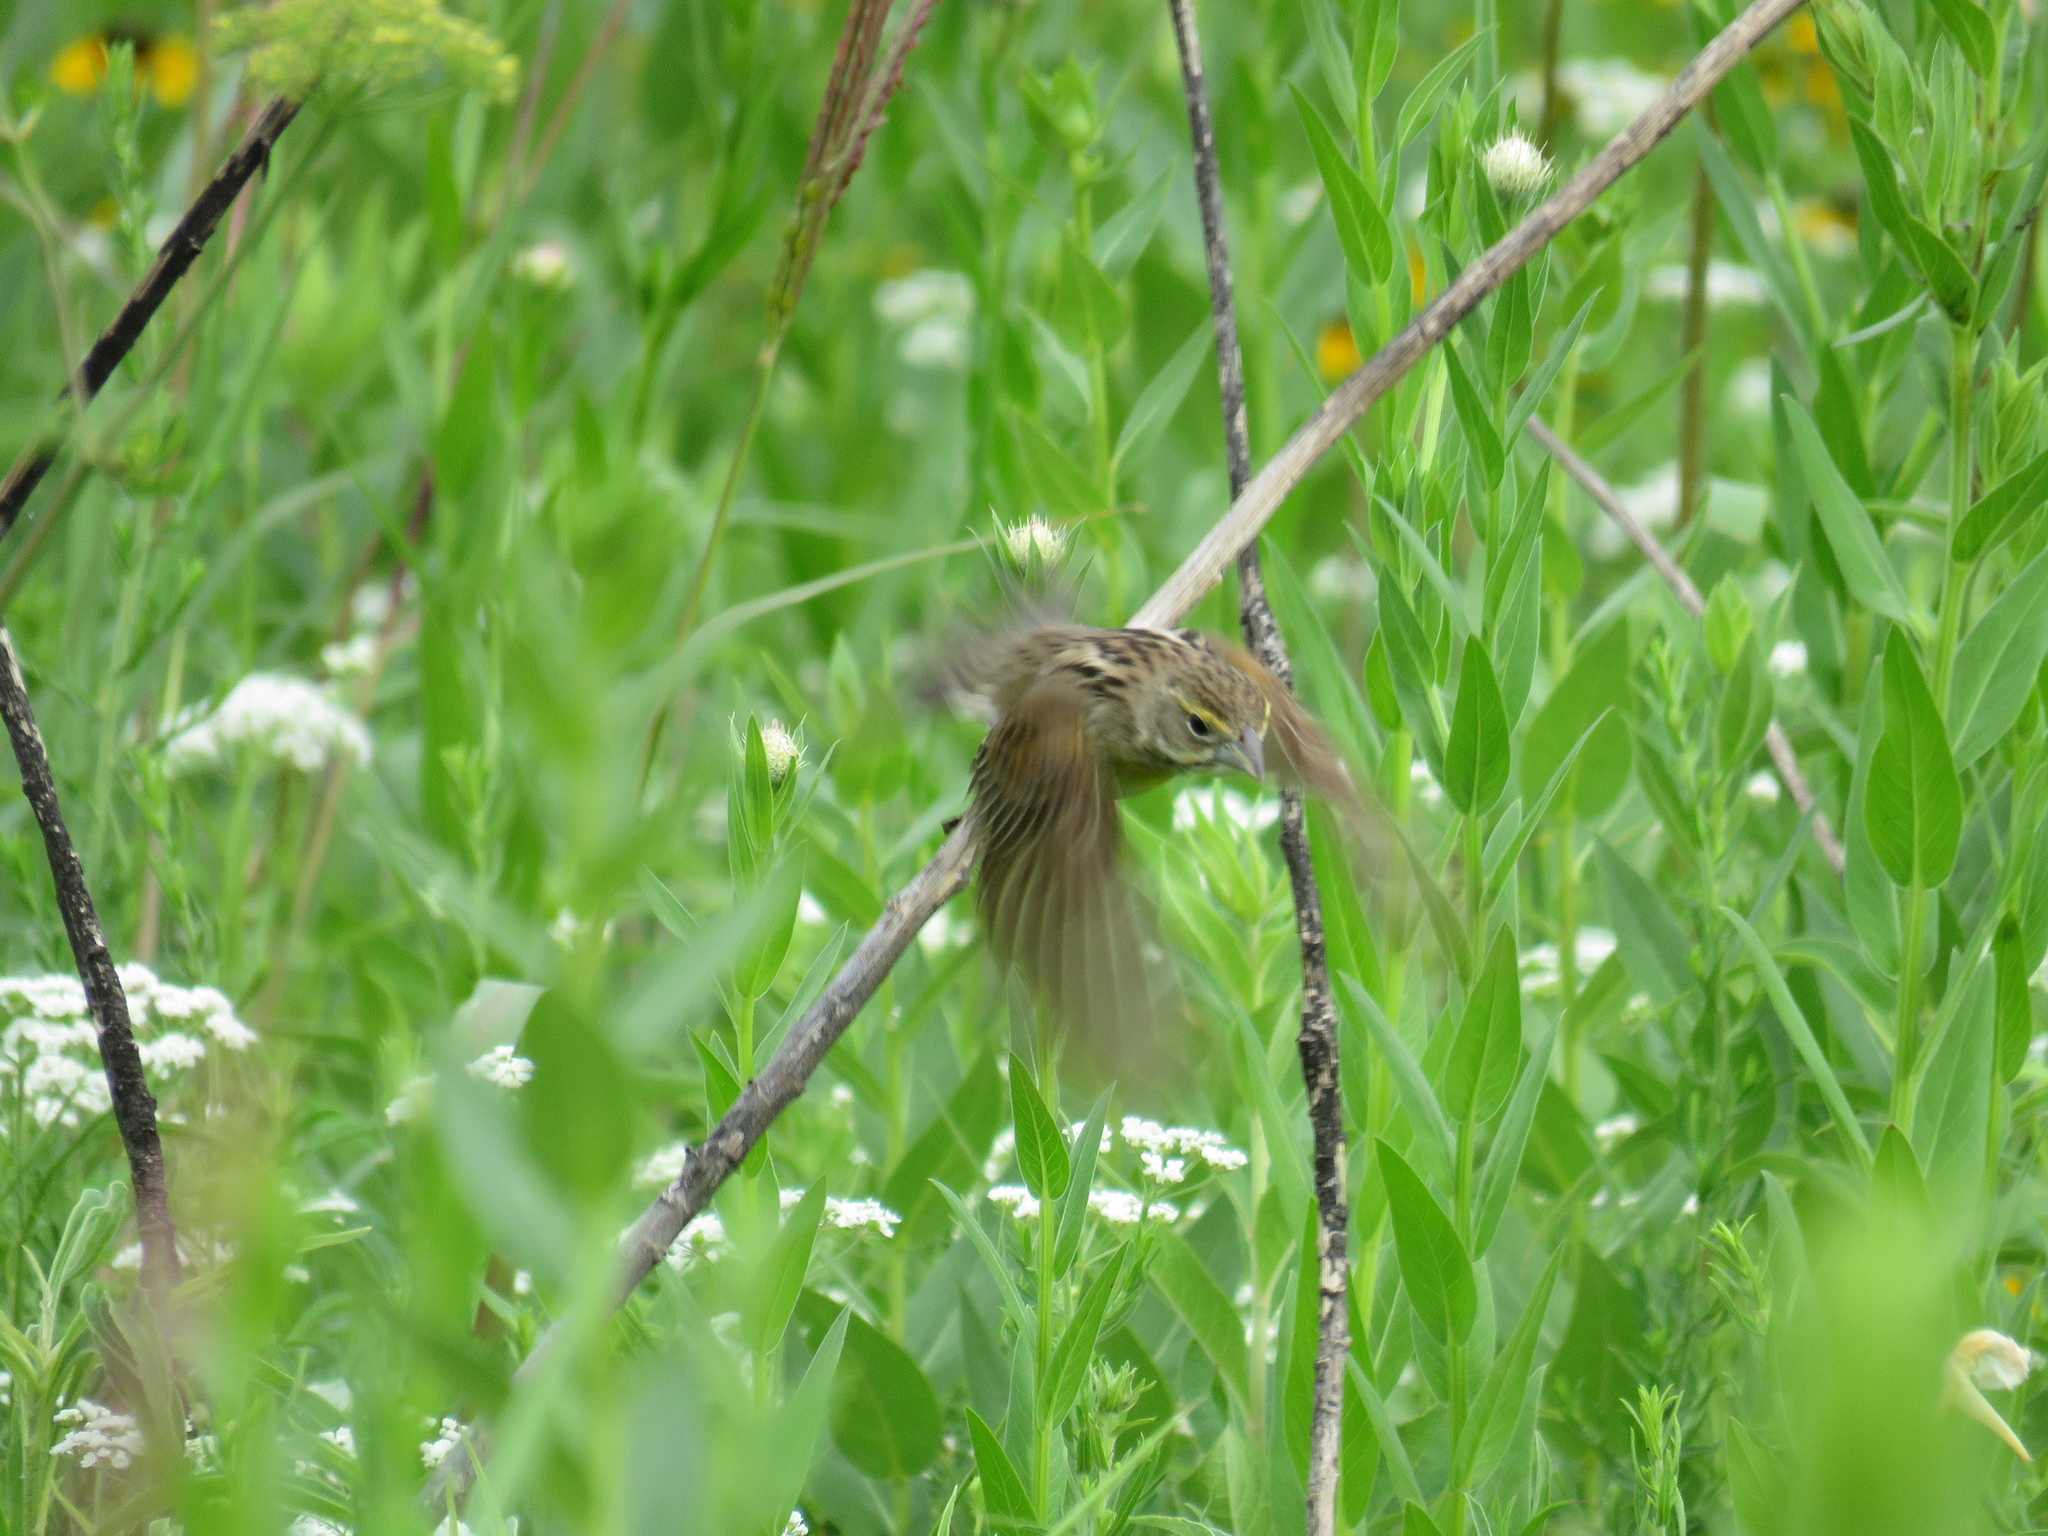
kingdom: Animalia
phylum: Chordata
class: Aves
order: Passeriformes
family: Cardinalidae
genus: Spiza
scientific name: Spiza americana
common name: Dickcissel
